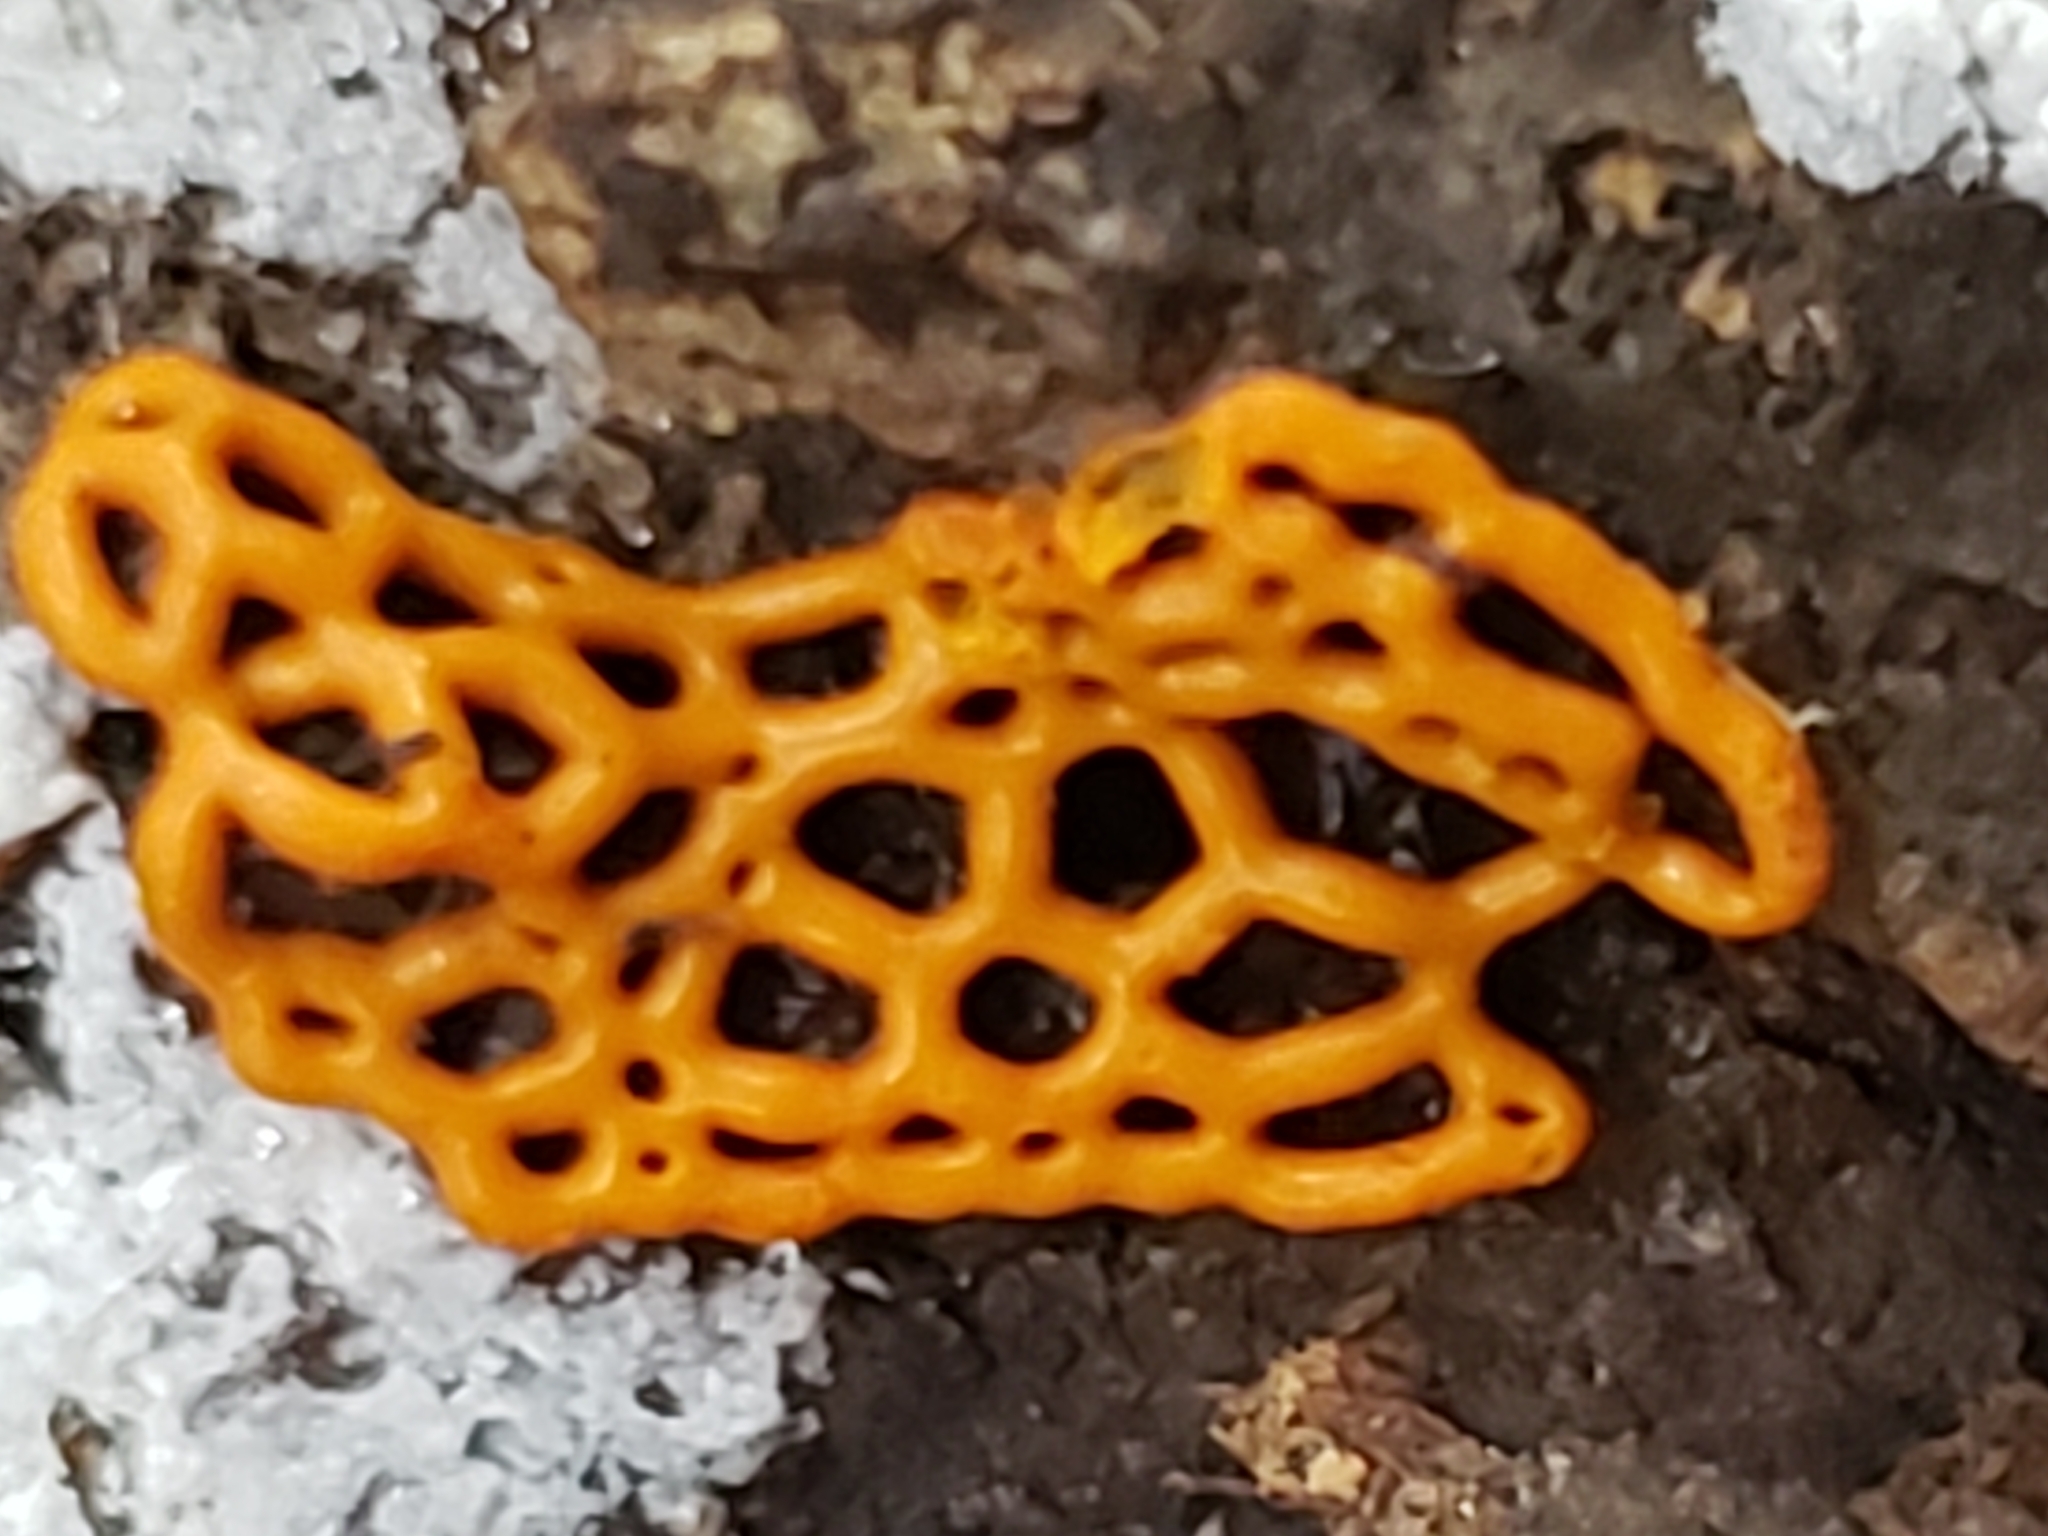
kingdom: Protozoa
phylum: Mycetozoa
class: Myxomycetes
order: Trichiales
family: Arcyriaceae
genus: Hemitrichia
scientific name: Hemitrichia serpula
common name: Pretzel slime mold
